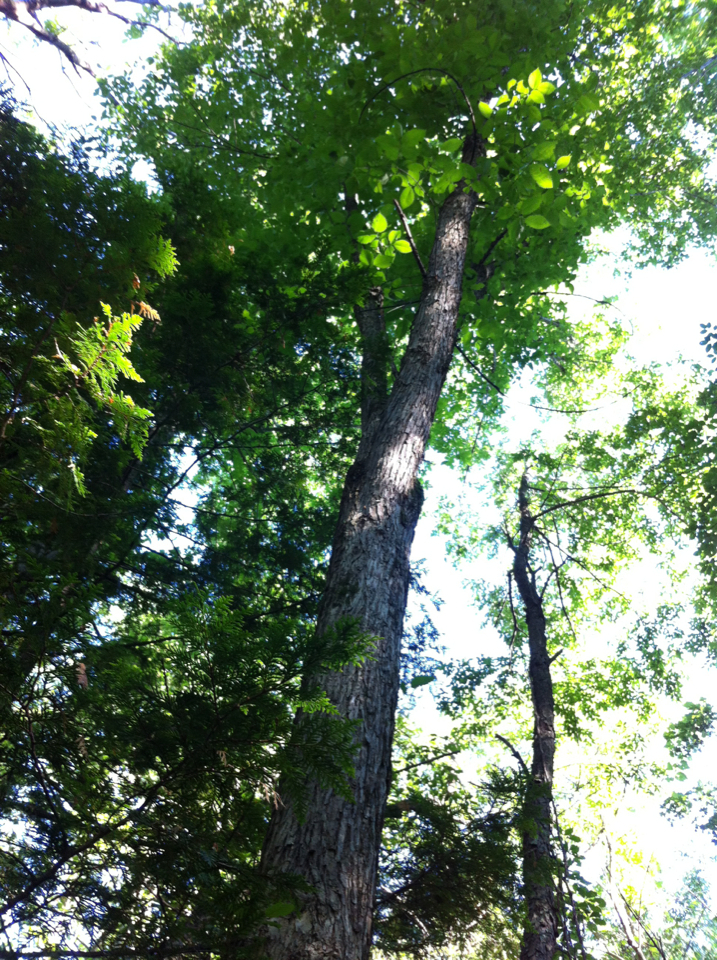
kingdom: Plantae
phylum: Tracheophyta
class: Magnoliopsida
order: Rosales
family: Ulmaceae
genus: Ulmus
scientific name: Ulmus americana
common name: American elm
